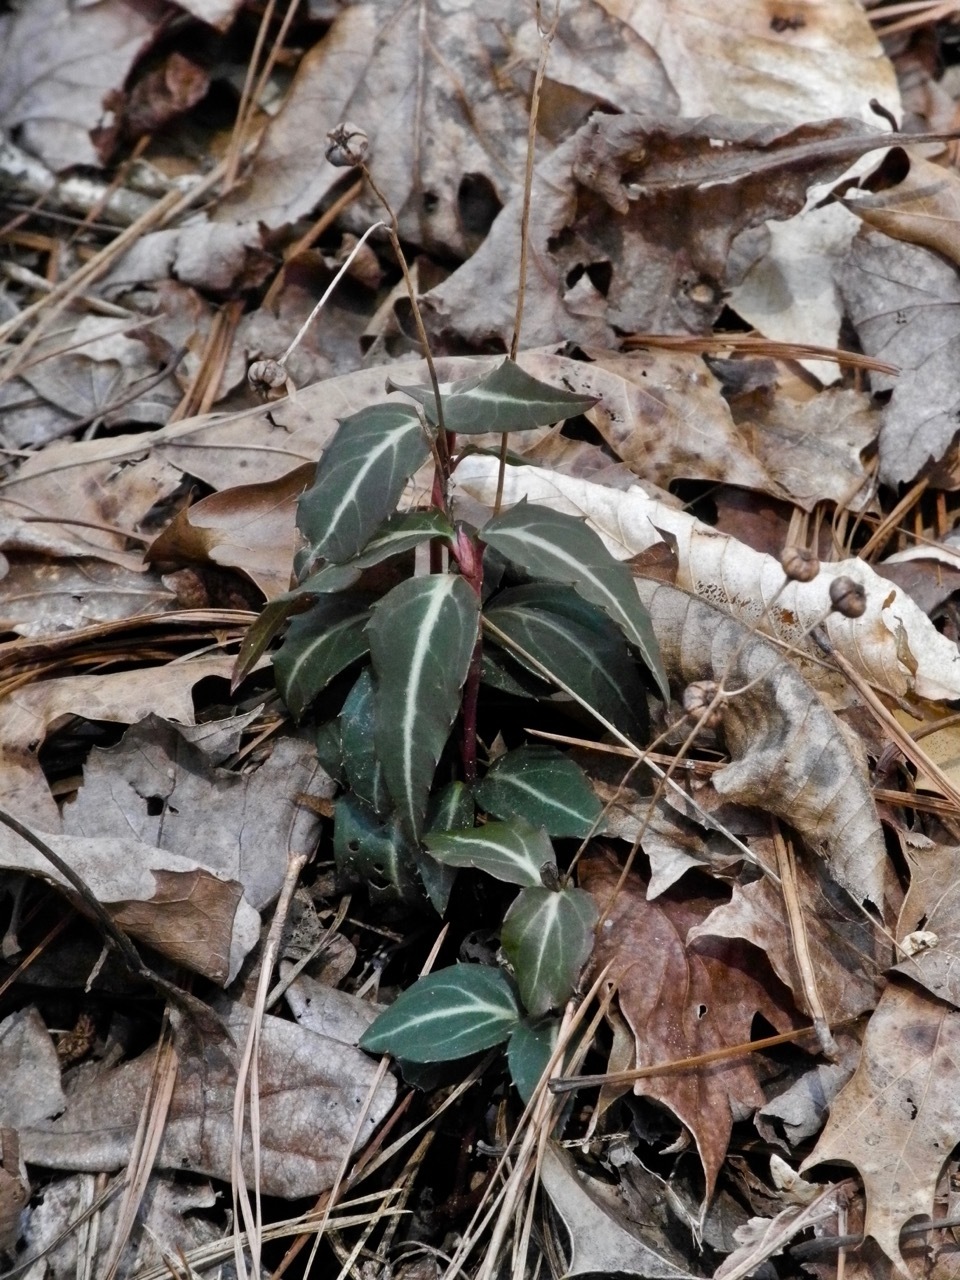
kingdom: Plantae
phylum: Tracheophyta
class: Magnoliopsida
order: Ericales
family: Ericaceae
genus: Chimaphila
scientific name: Chimaphila maculata
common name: Spotted pipsissewa
